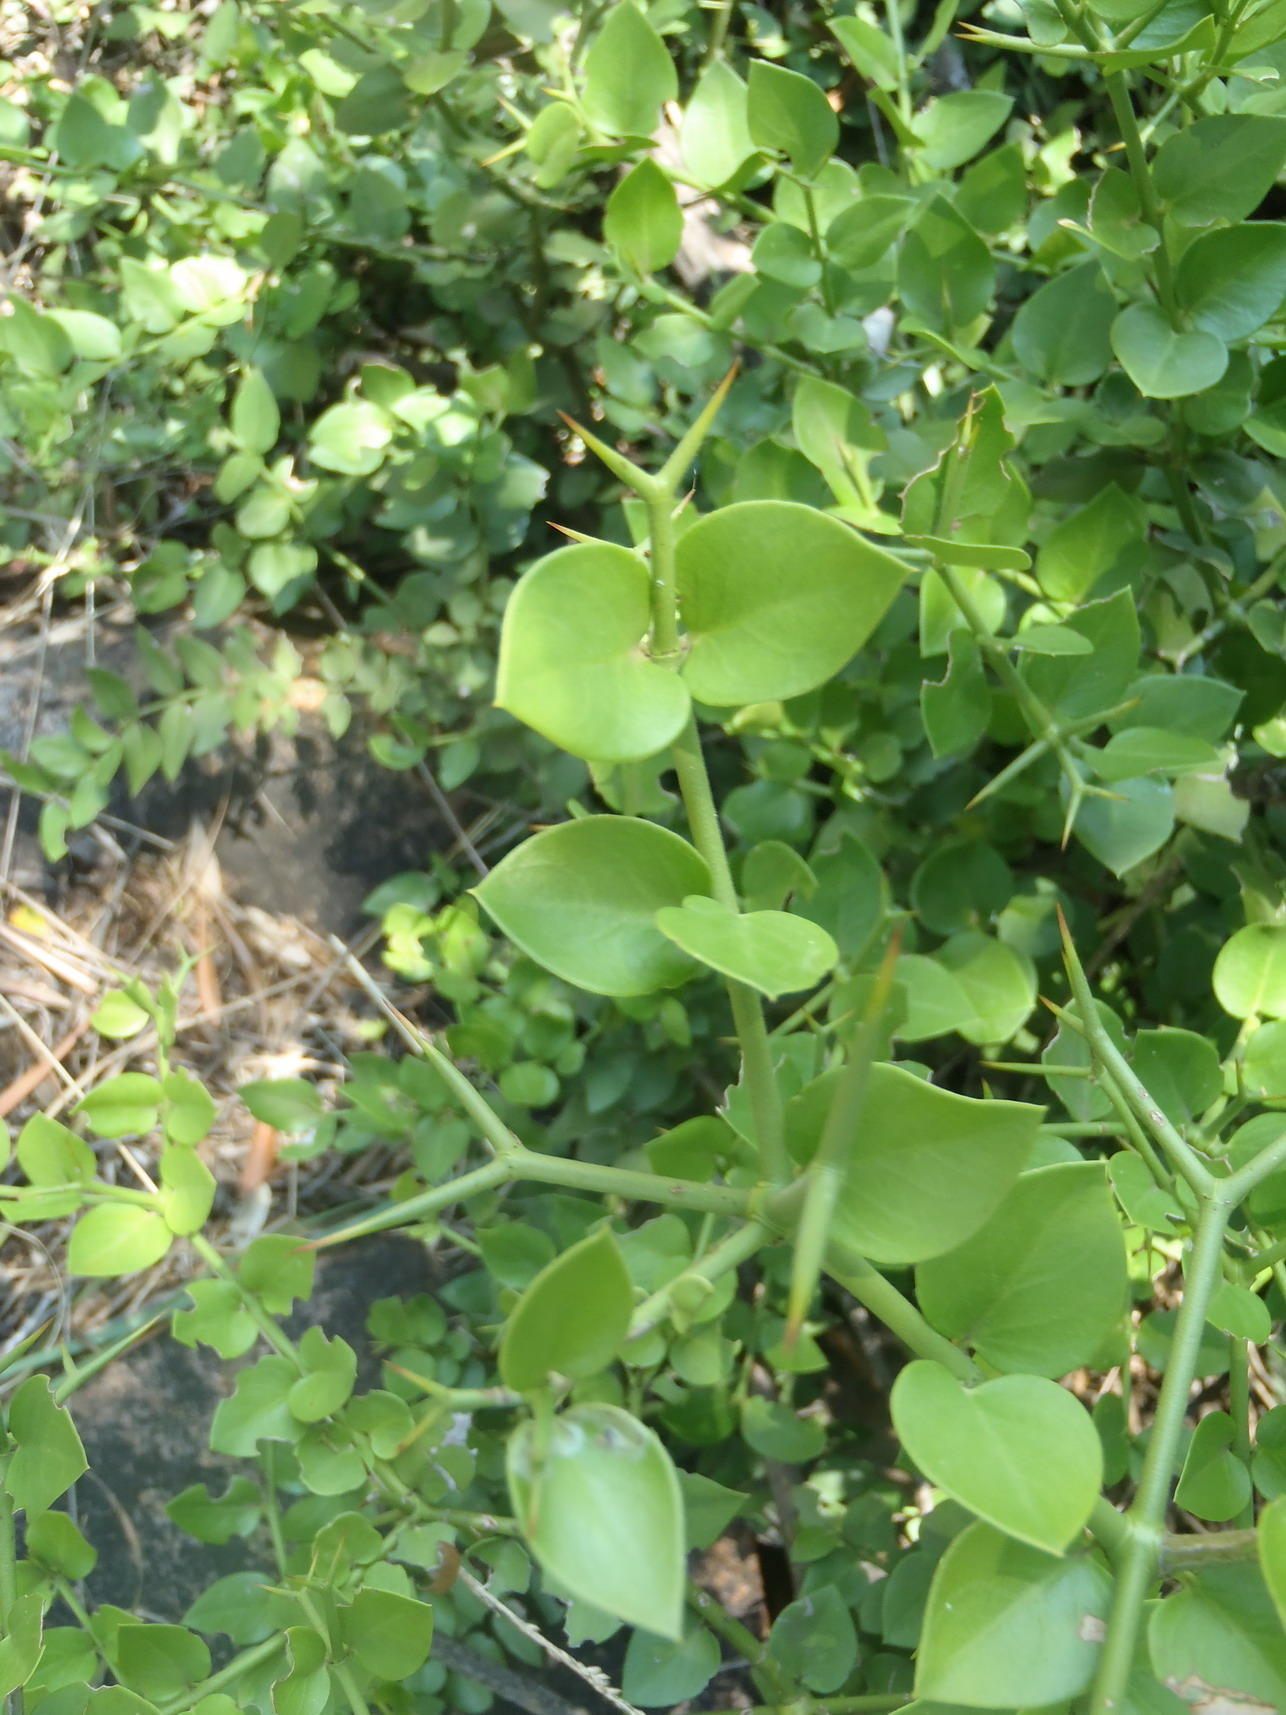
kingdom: Plantae
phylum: Tracheophyta
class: Magnoliopsida
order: Gentianales
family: Apocynaceae
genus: Carissa
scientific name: Carissa bispinosa
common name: Forest num-num
